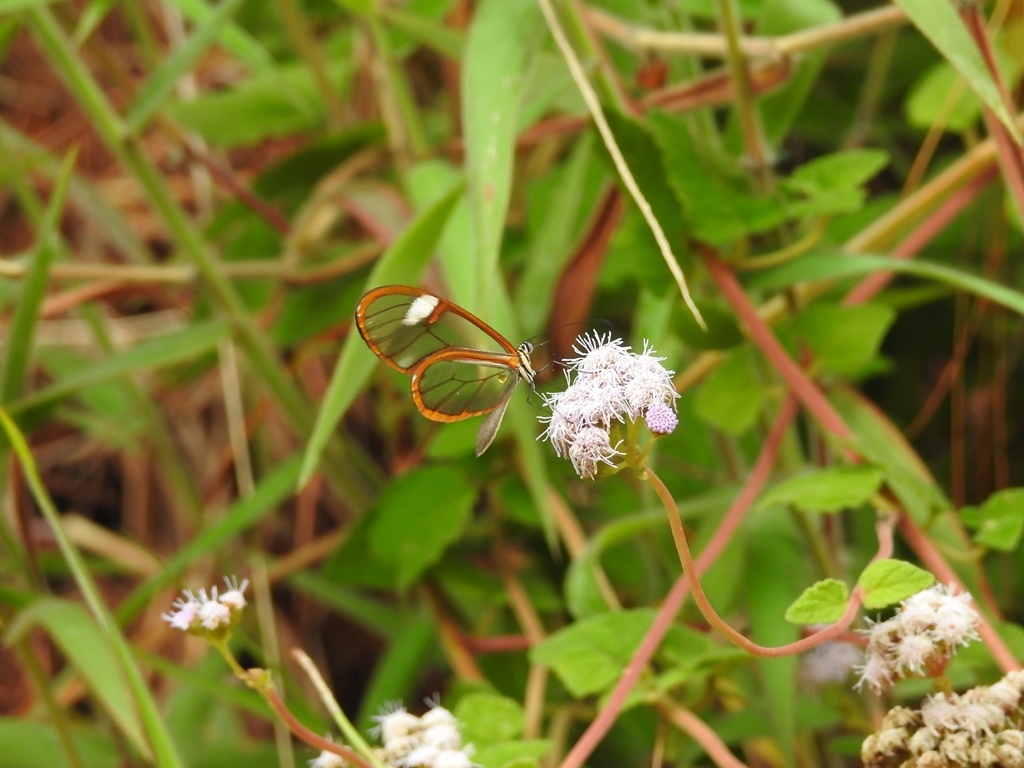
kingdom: Animalia
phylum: Arthropoda
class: Insecta
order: Lepidoptera
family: Nymphalidae
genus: Pteronymia
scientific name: Pteronymia simplex
